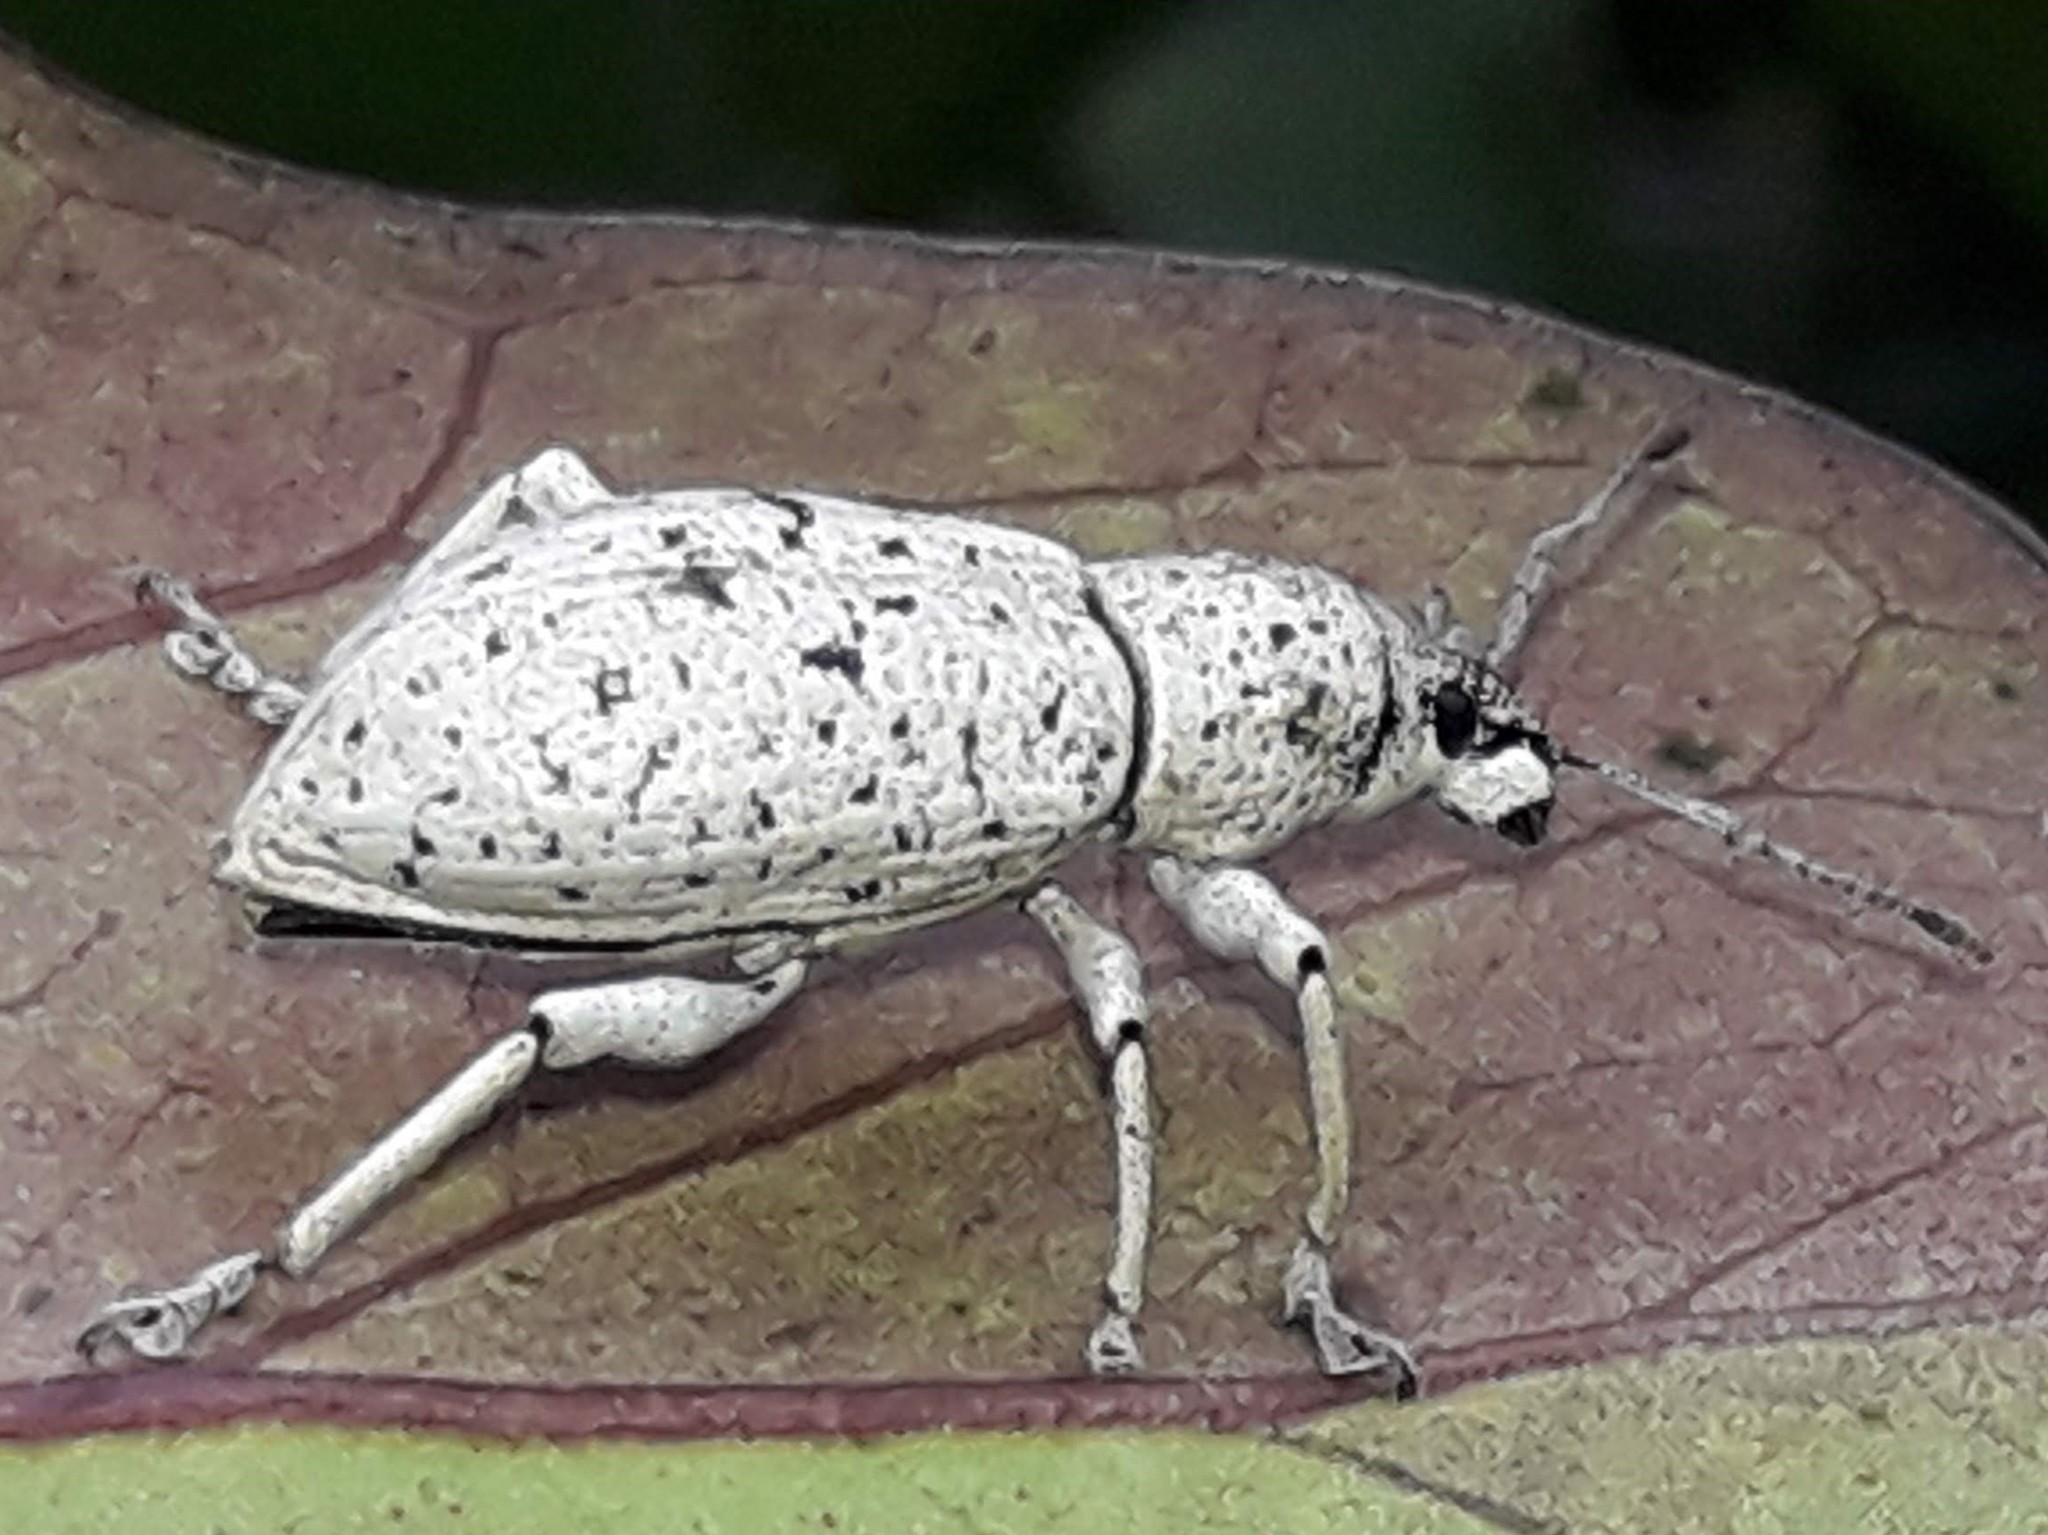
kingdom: Animalia
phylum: Arthropoda
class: Insecta
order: Coleoptera
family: Curculionidae
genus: Exophthalmus
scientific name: Exophthalmus scalptus
